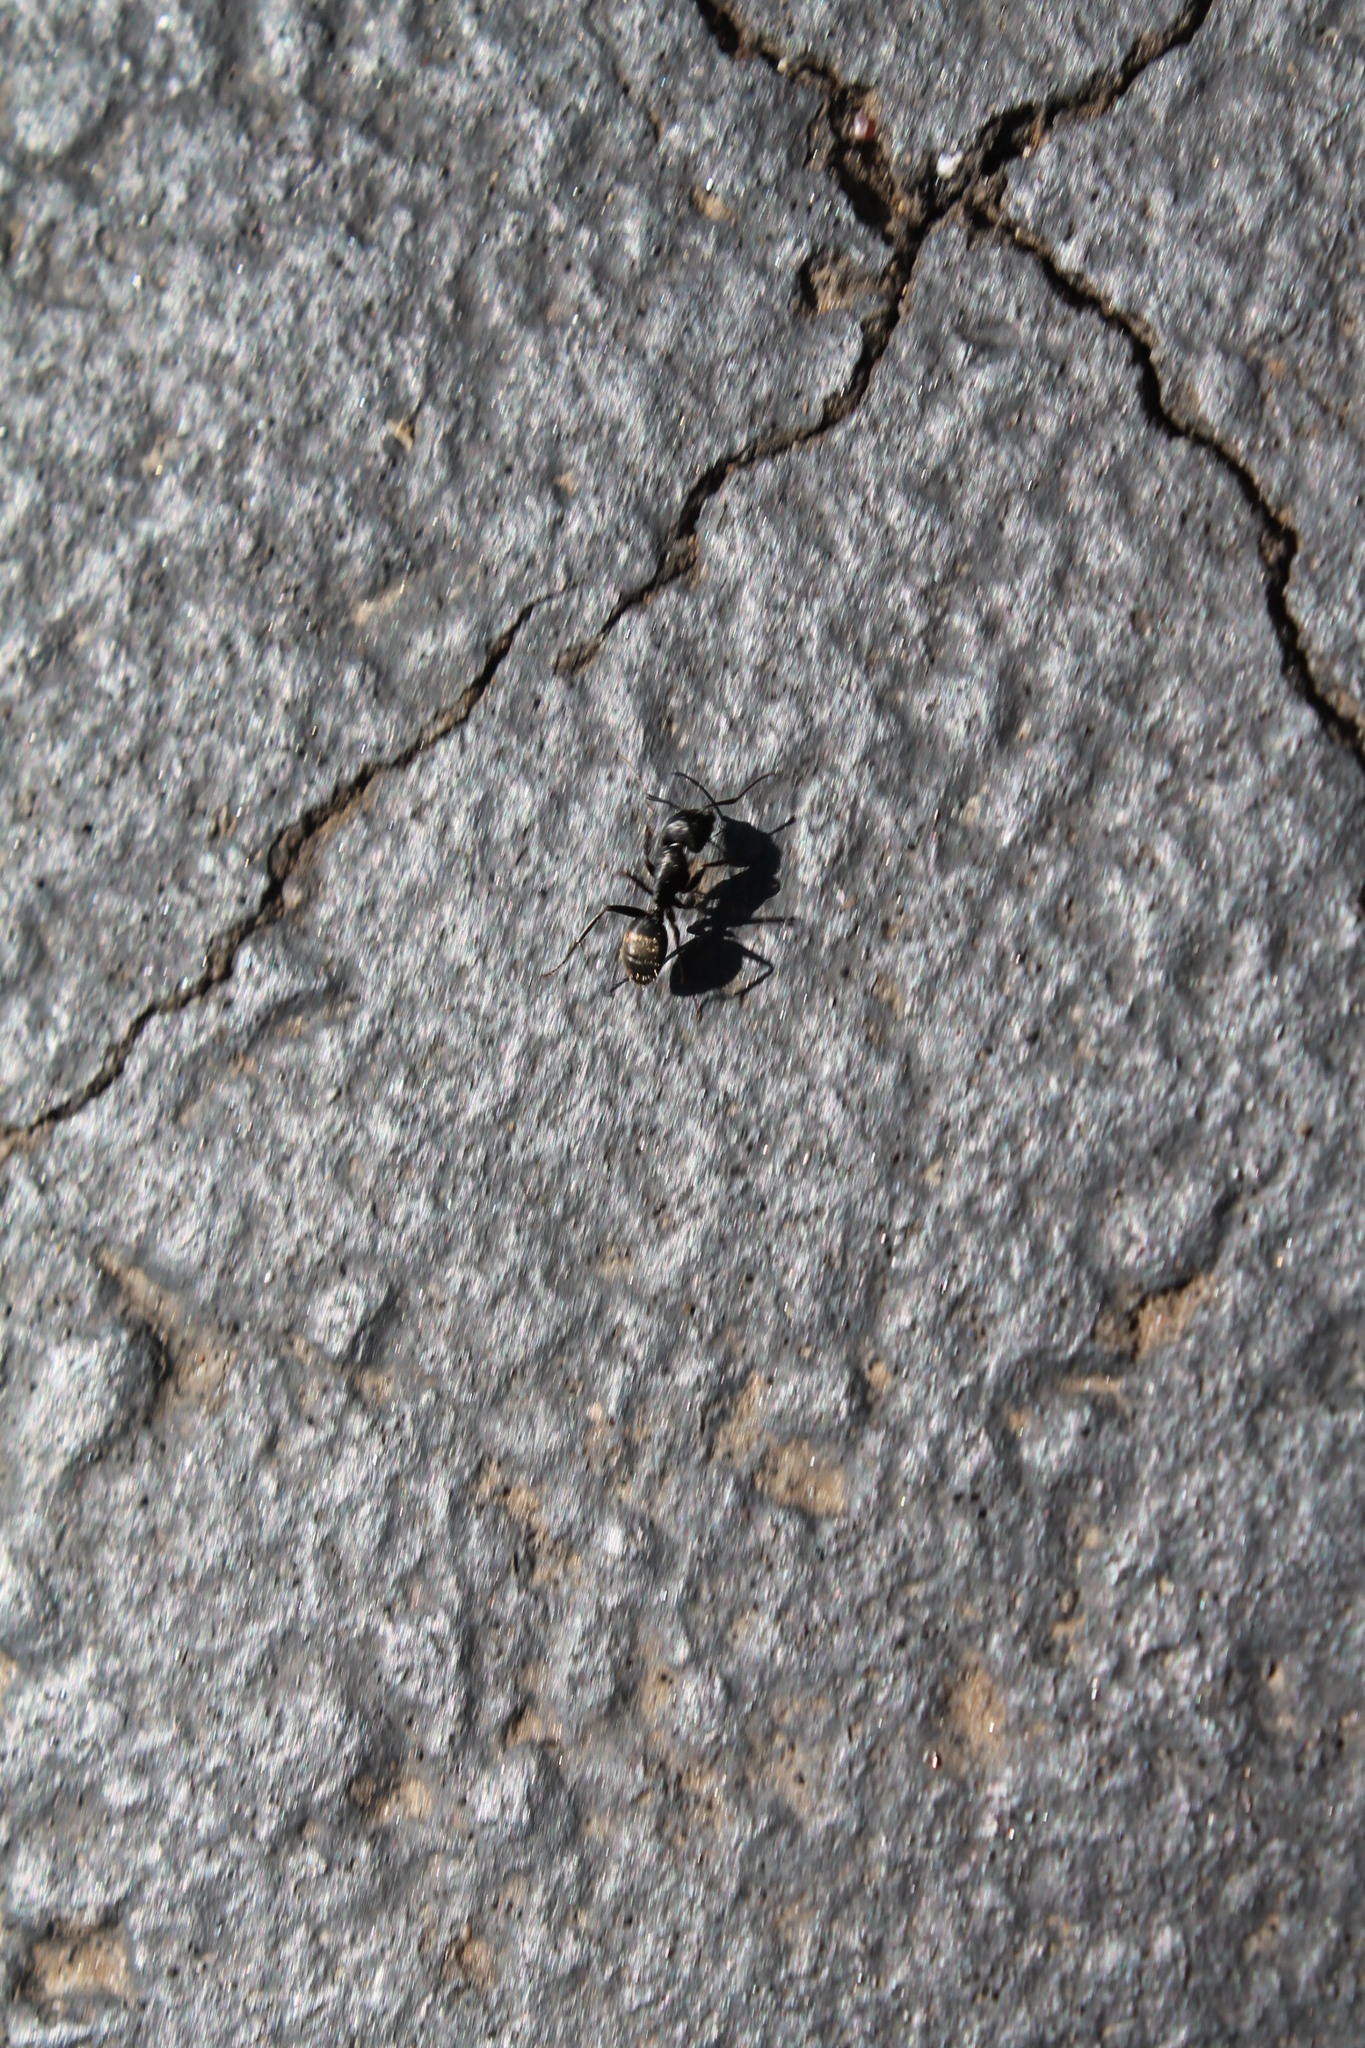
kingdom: Animalia
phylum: Arthropoda
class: Insecta
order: Hymenoptera
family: Formicidae
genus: Camponotus
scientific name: Camponotus pennsylvanicus
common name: Black carpenter ant
